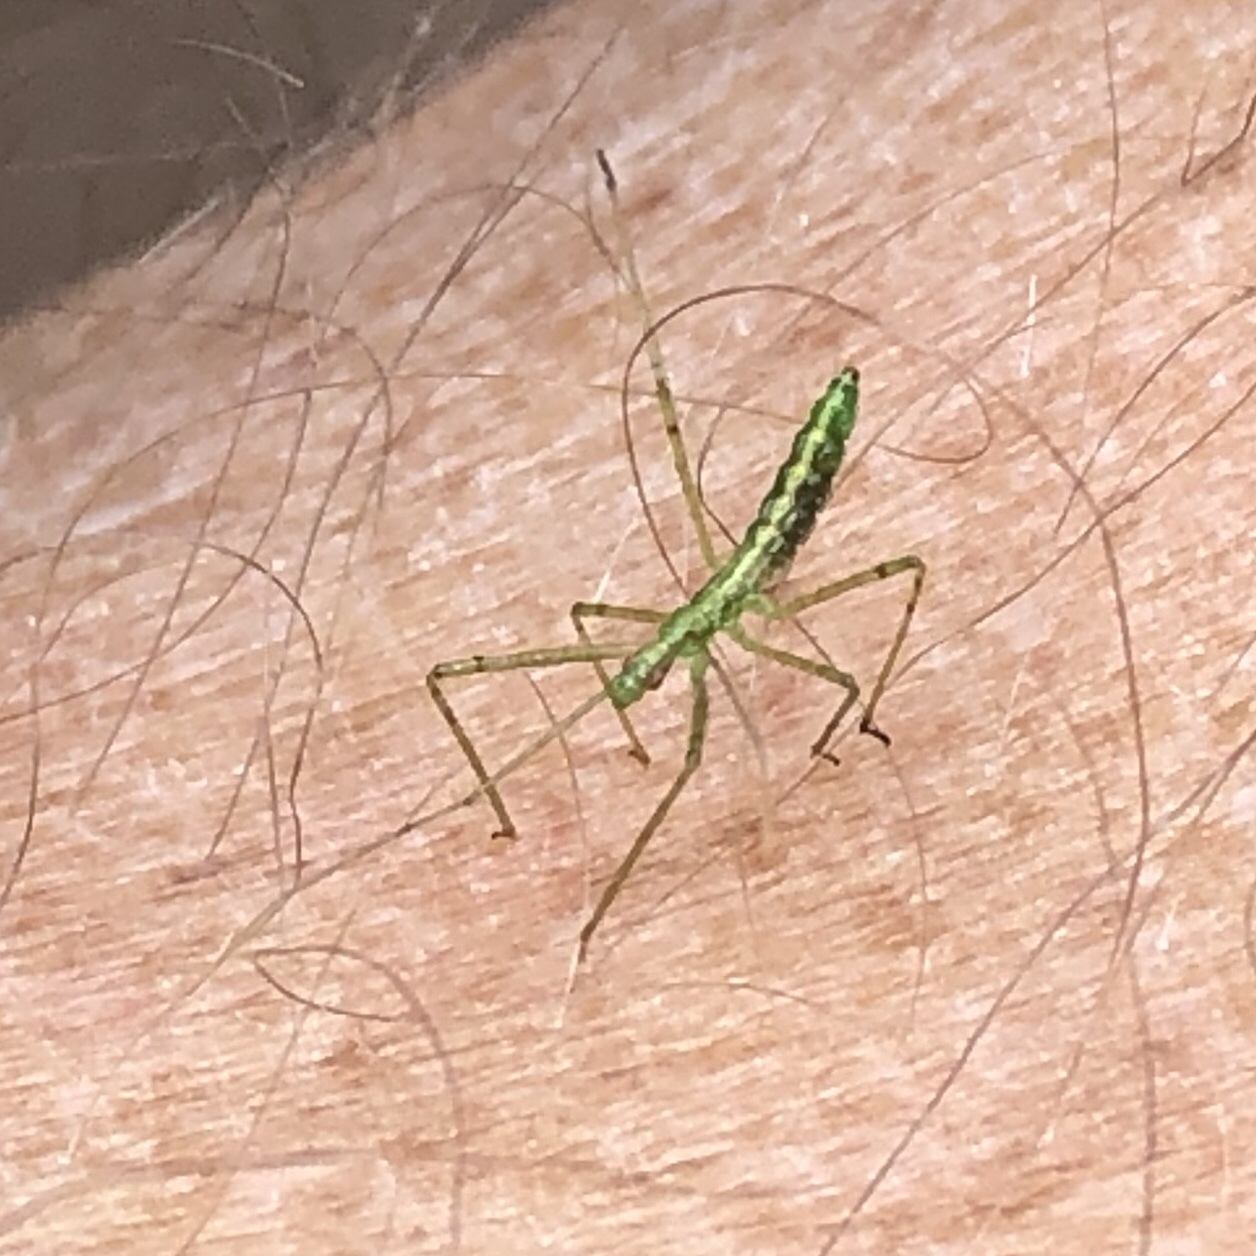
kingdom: Animalia
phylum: Arthropoda
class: Insecta
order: Hemiptera
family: Reduviidae
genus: Zelus
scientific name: Zelus luridus
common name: Pale green assassin bug
